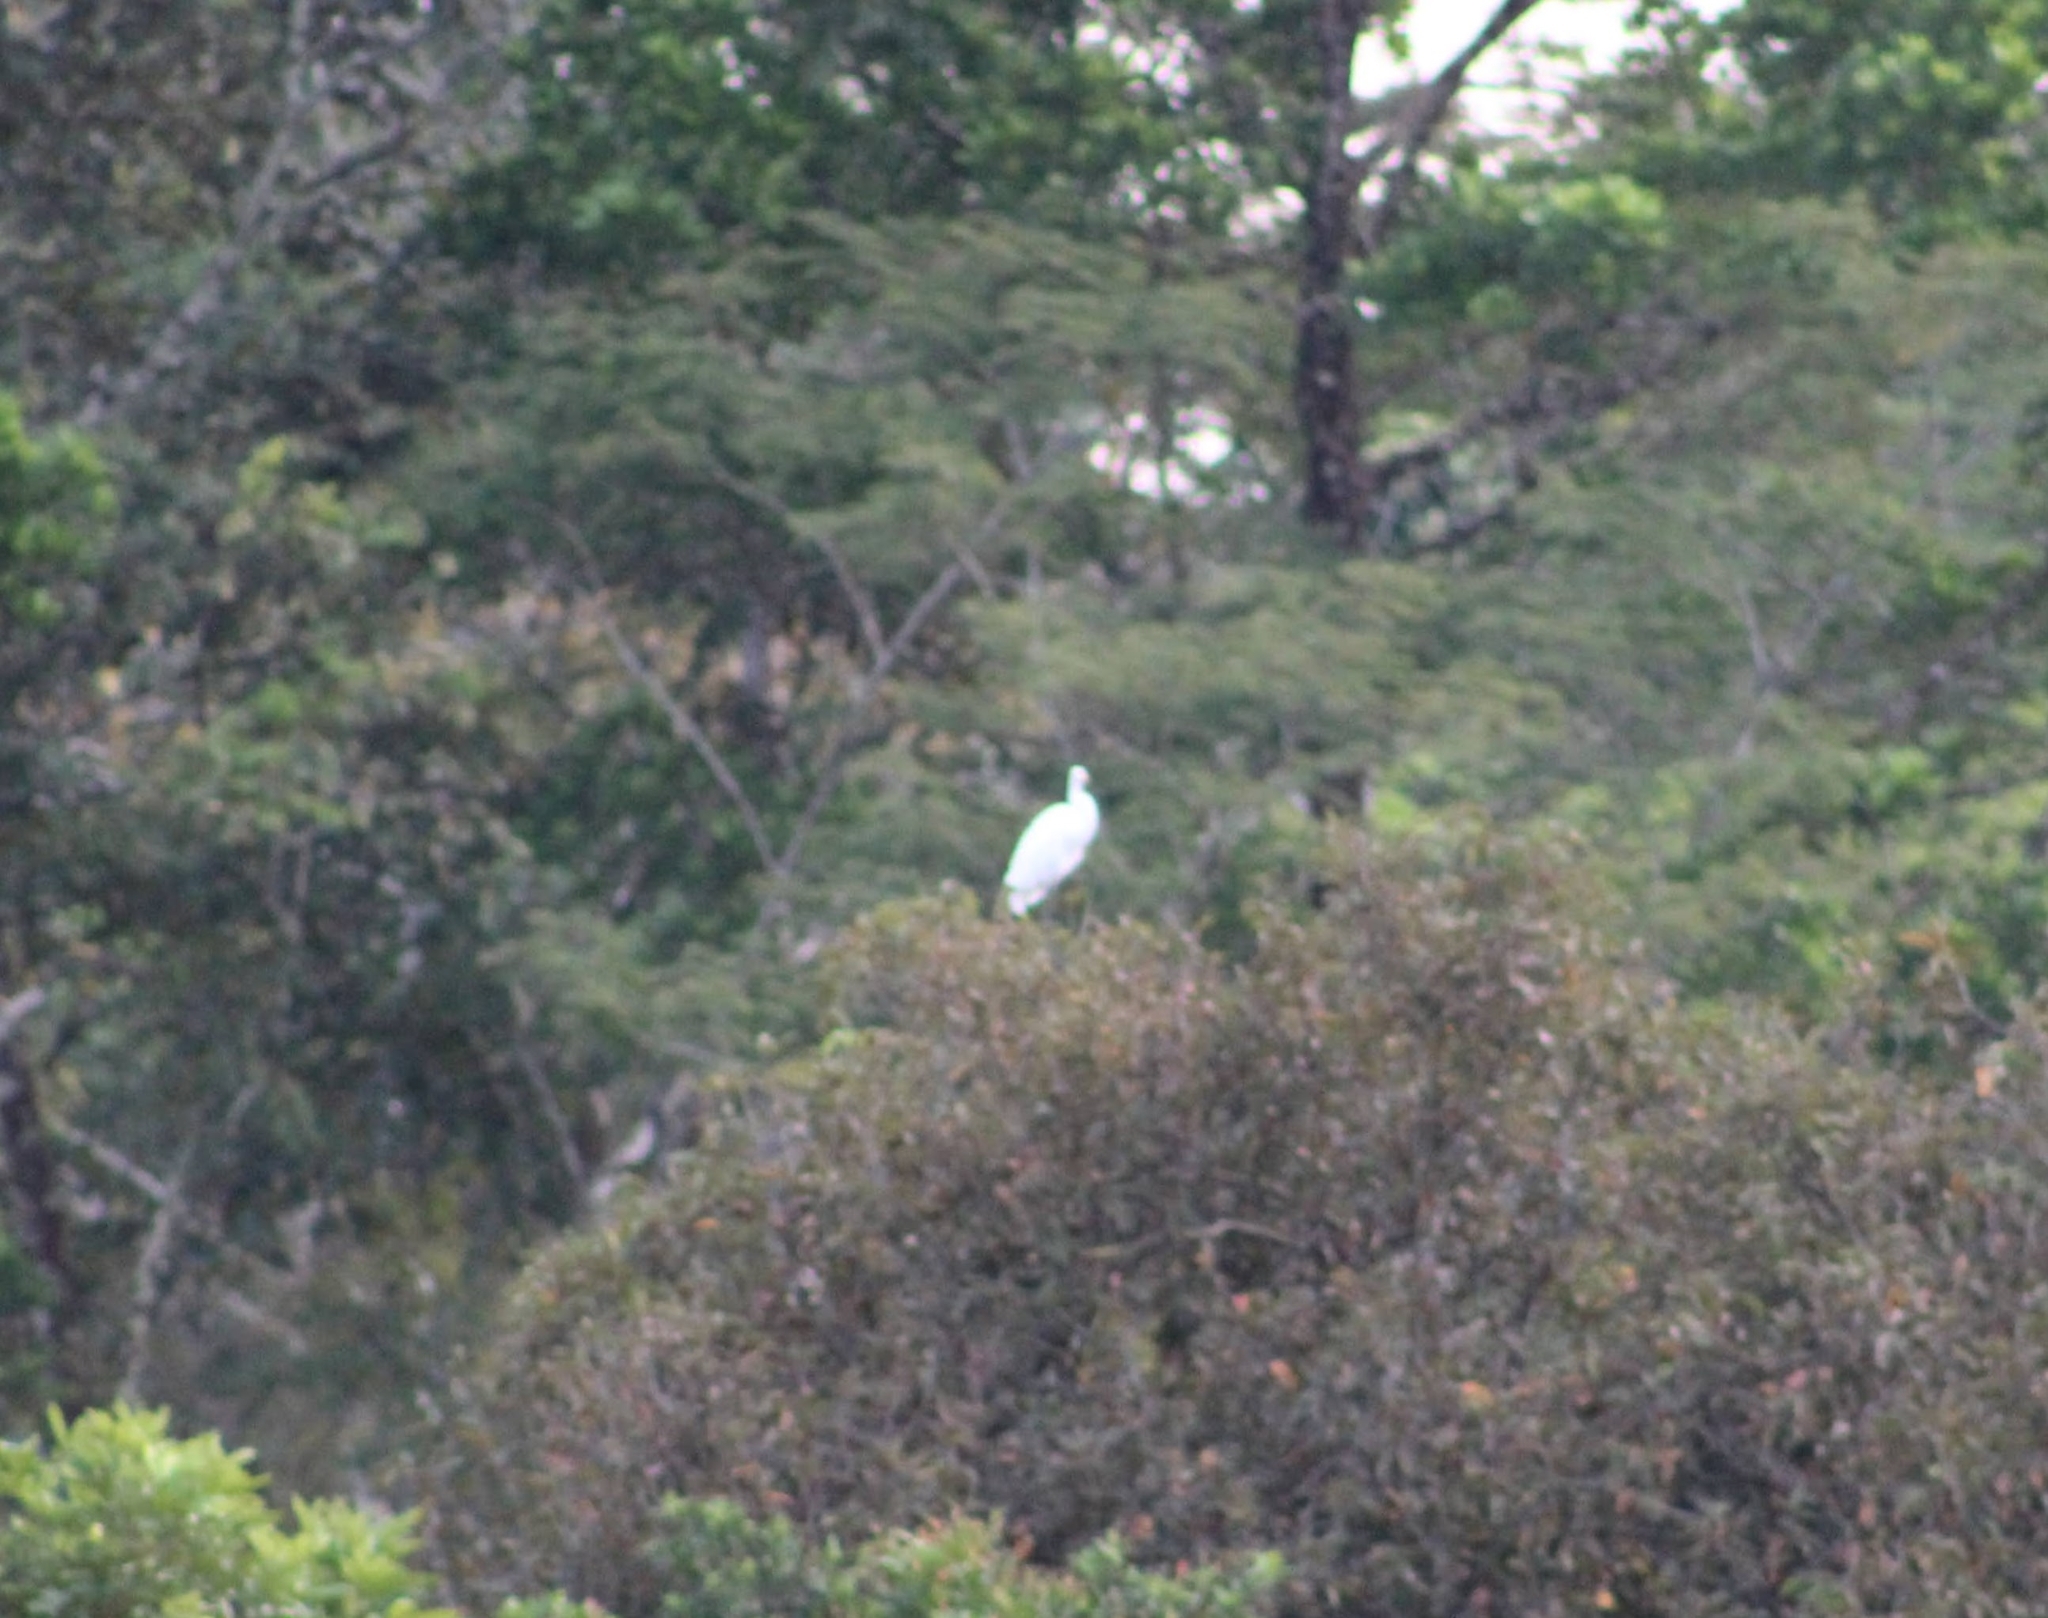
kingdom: Animalia
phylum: Chordata
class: Aves
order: Pelecaniformes
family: Ardeidae
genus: Ardea
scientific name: Ardea alba
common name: Great egret
